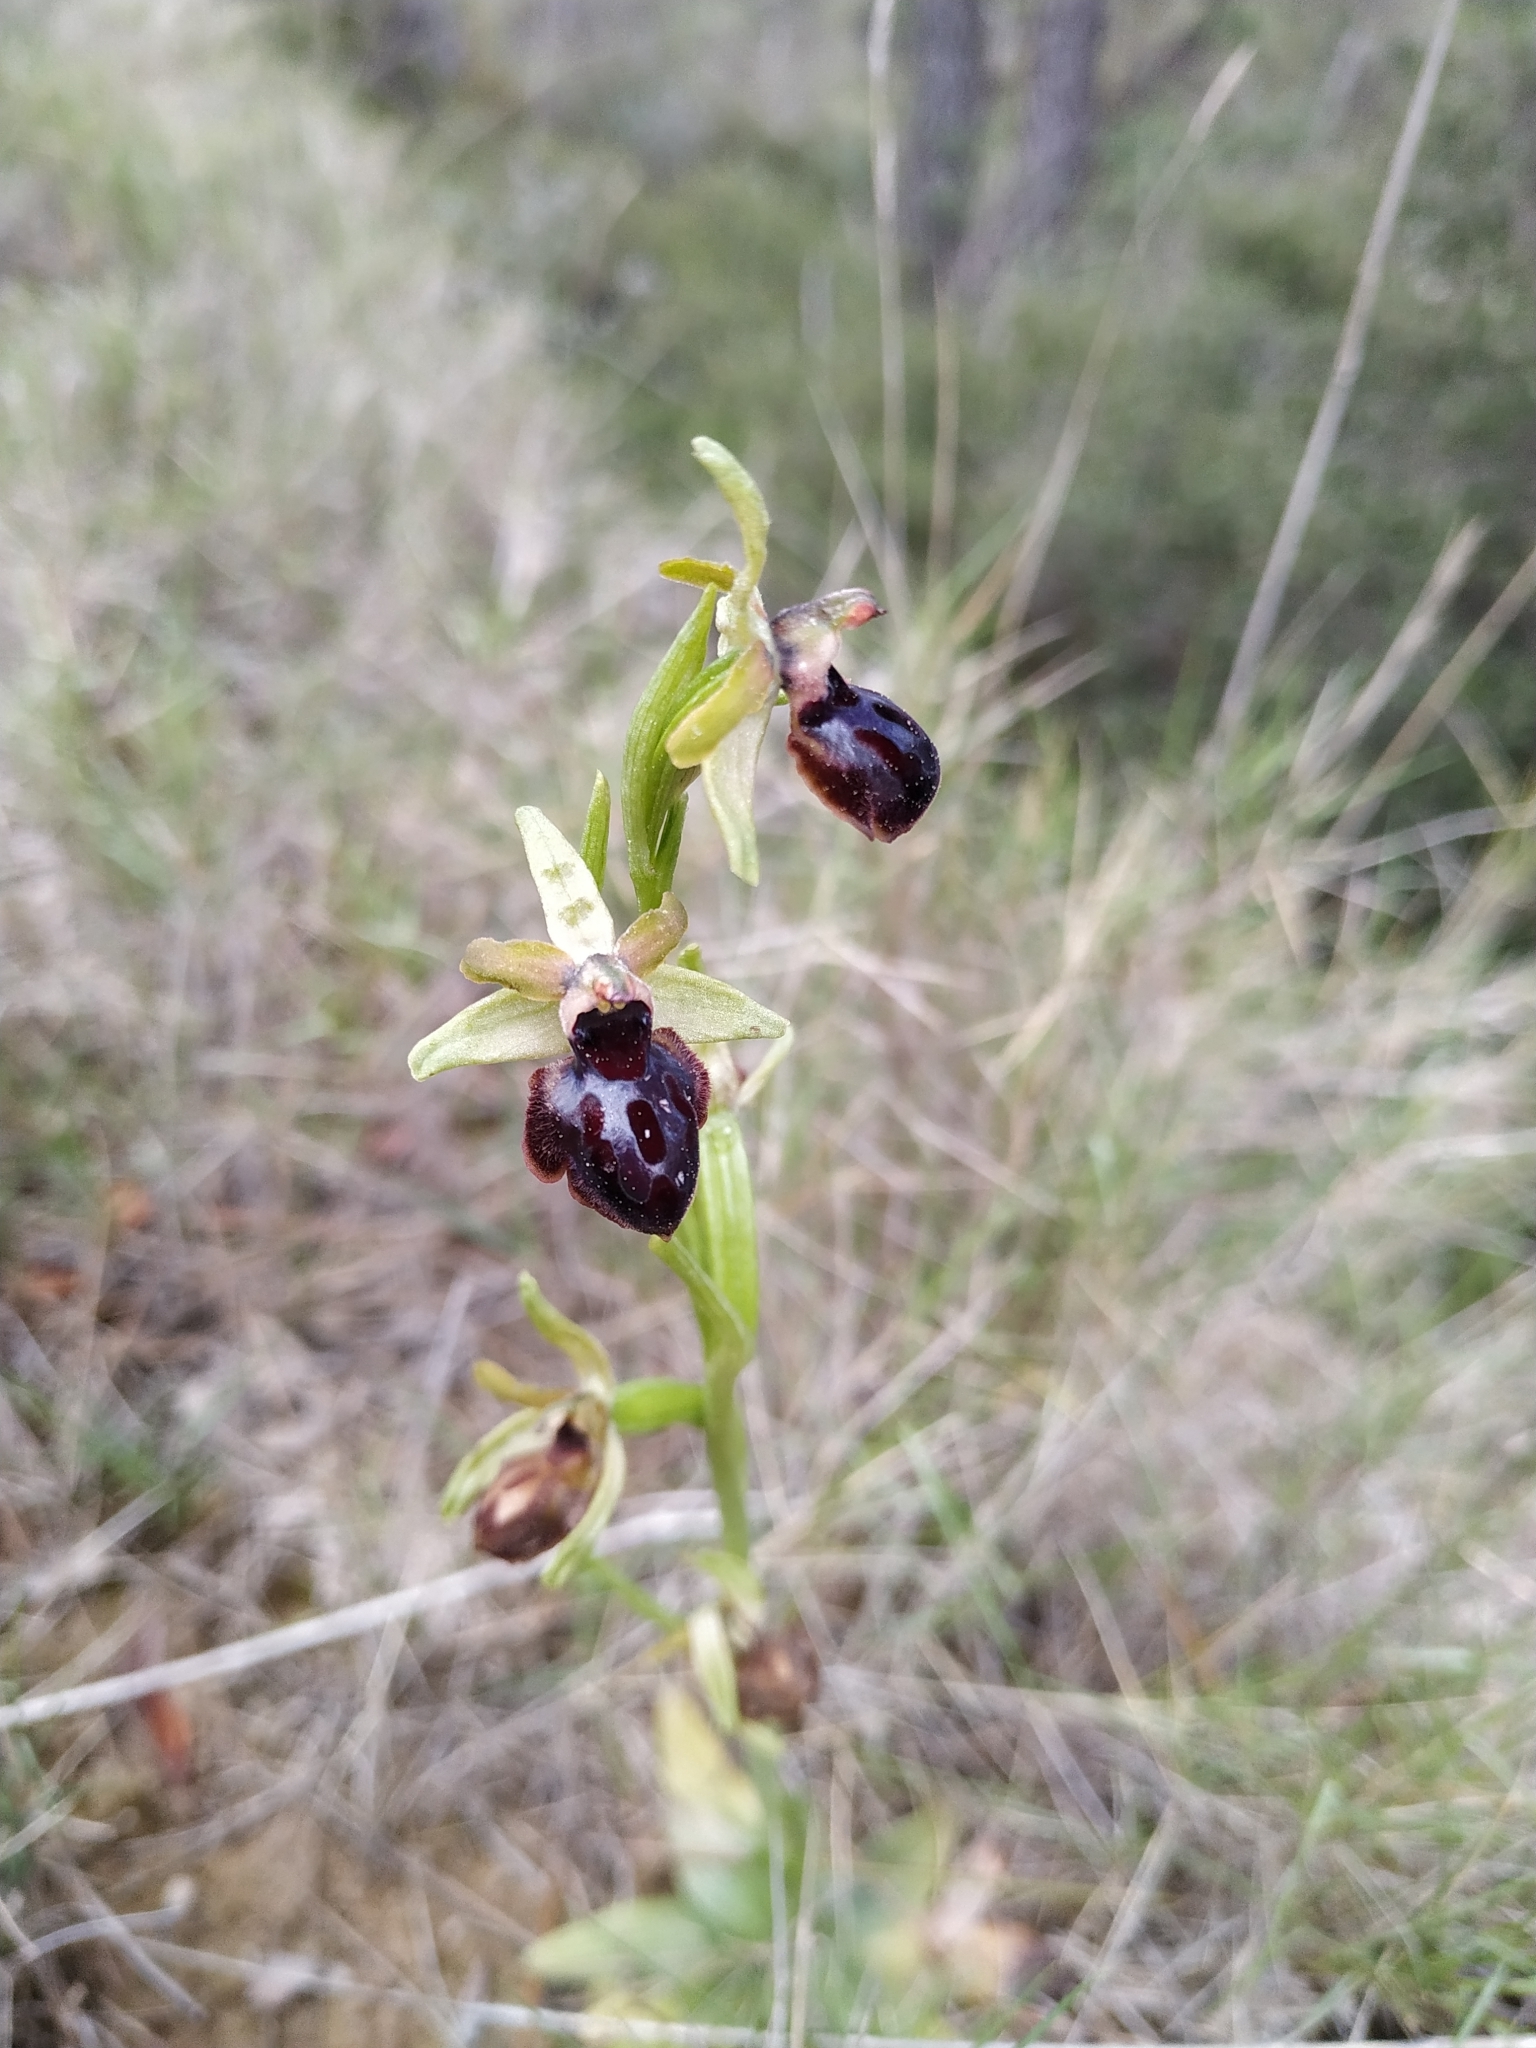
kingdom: Plantae
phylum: Tracheophyta
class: Liliopsida
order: Asparagales
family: Orchidaceae
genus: Ophrys
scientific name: Ophrys sphegodes
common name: Early spider-orchid
